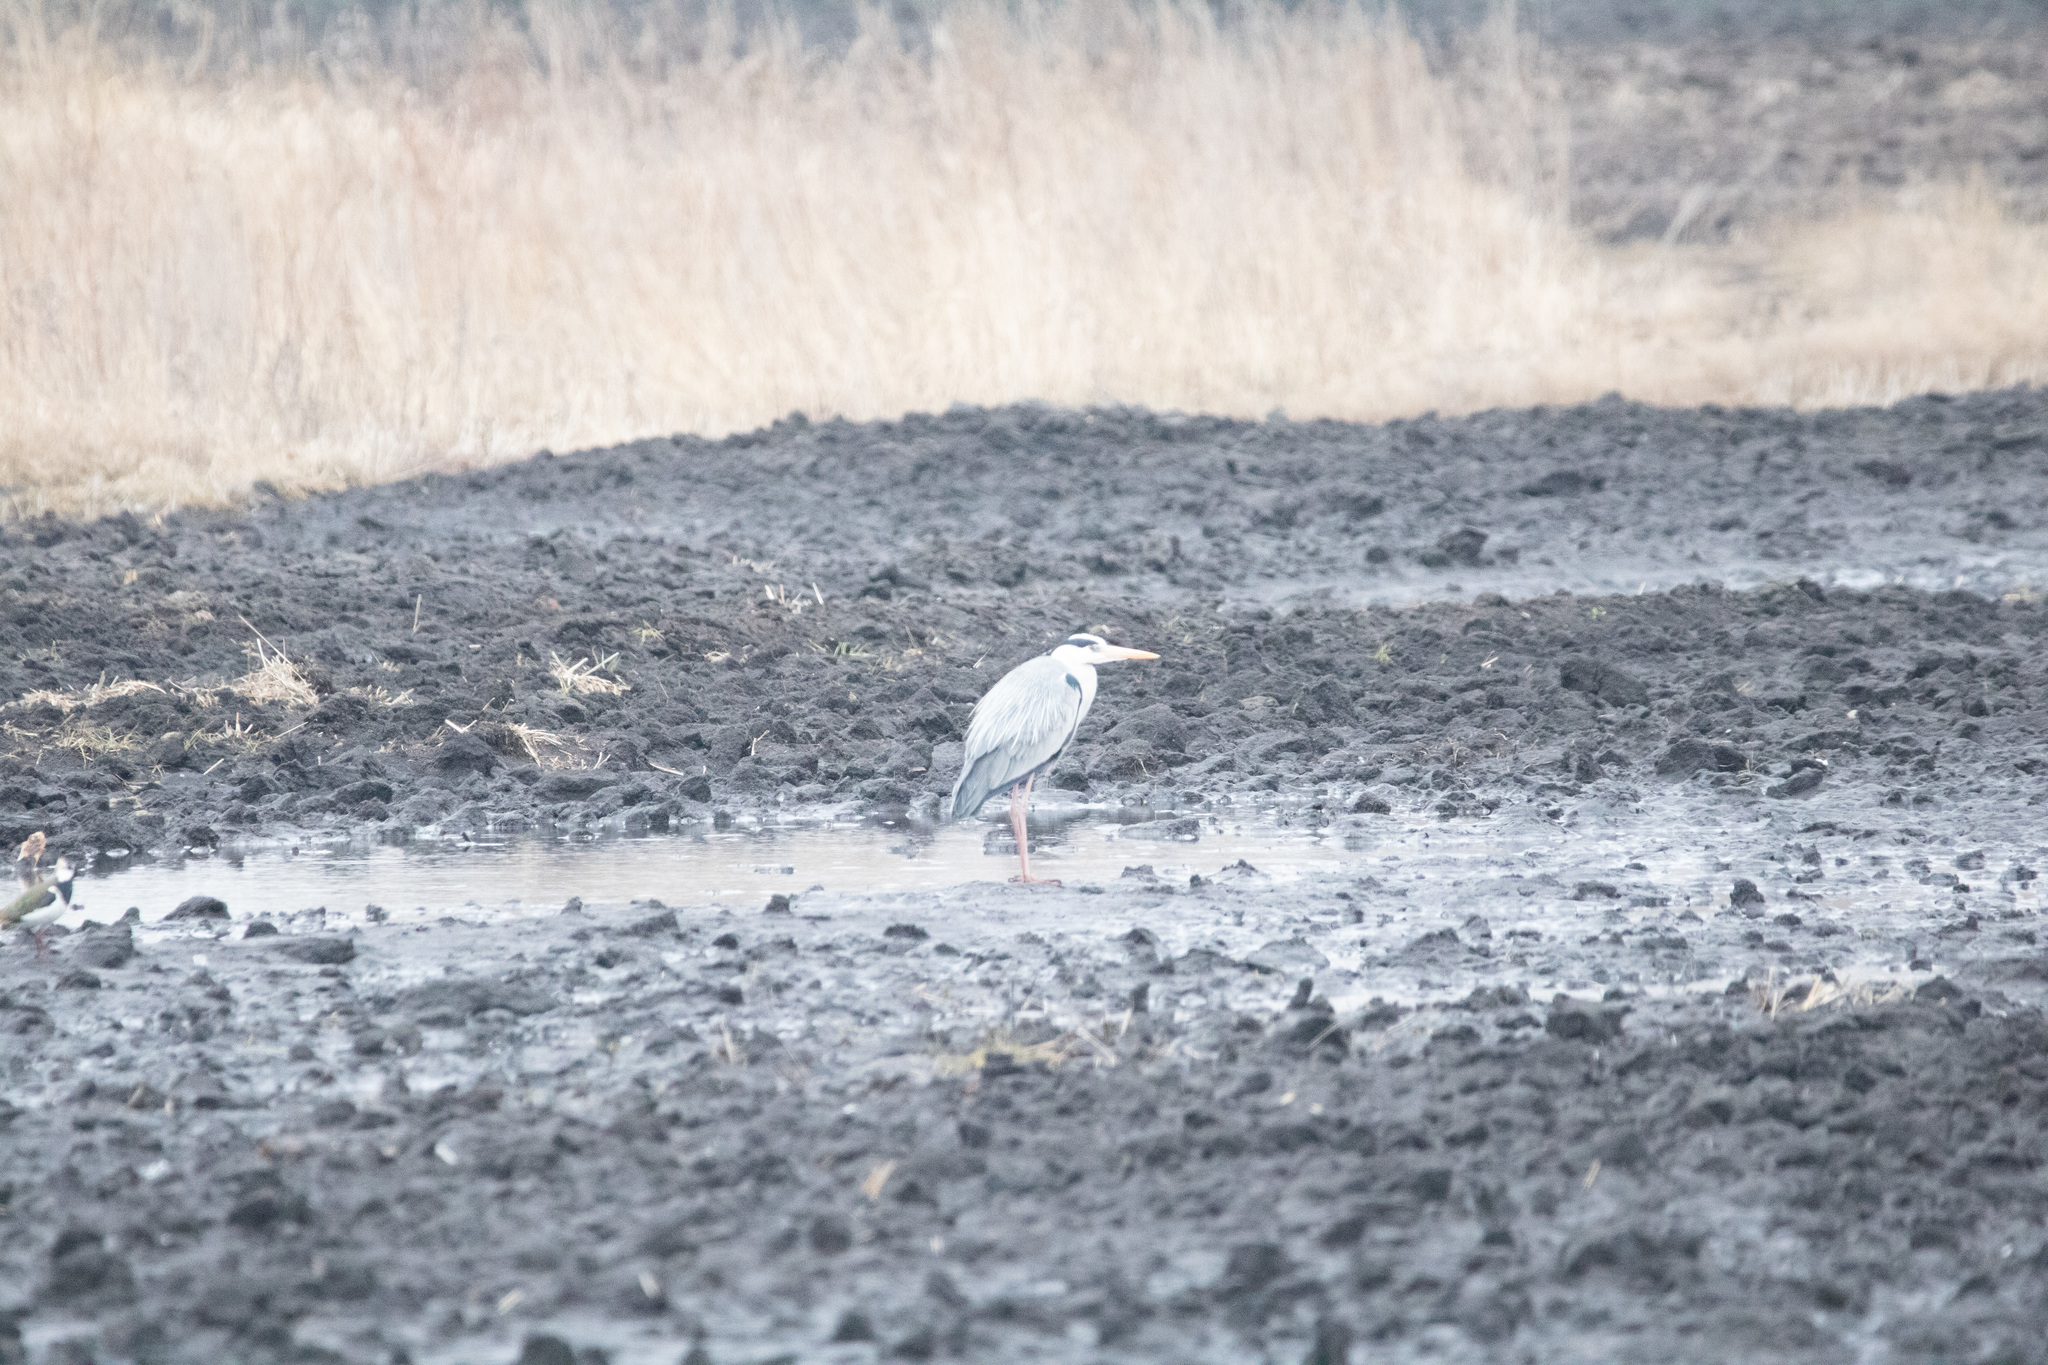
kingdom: Animalia
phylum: Chordata
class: Aves
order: Pelecaniformes
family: Ardeidae
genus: Ardea
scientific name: Ardea cinerea
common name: Grey heron
